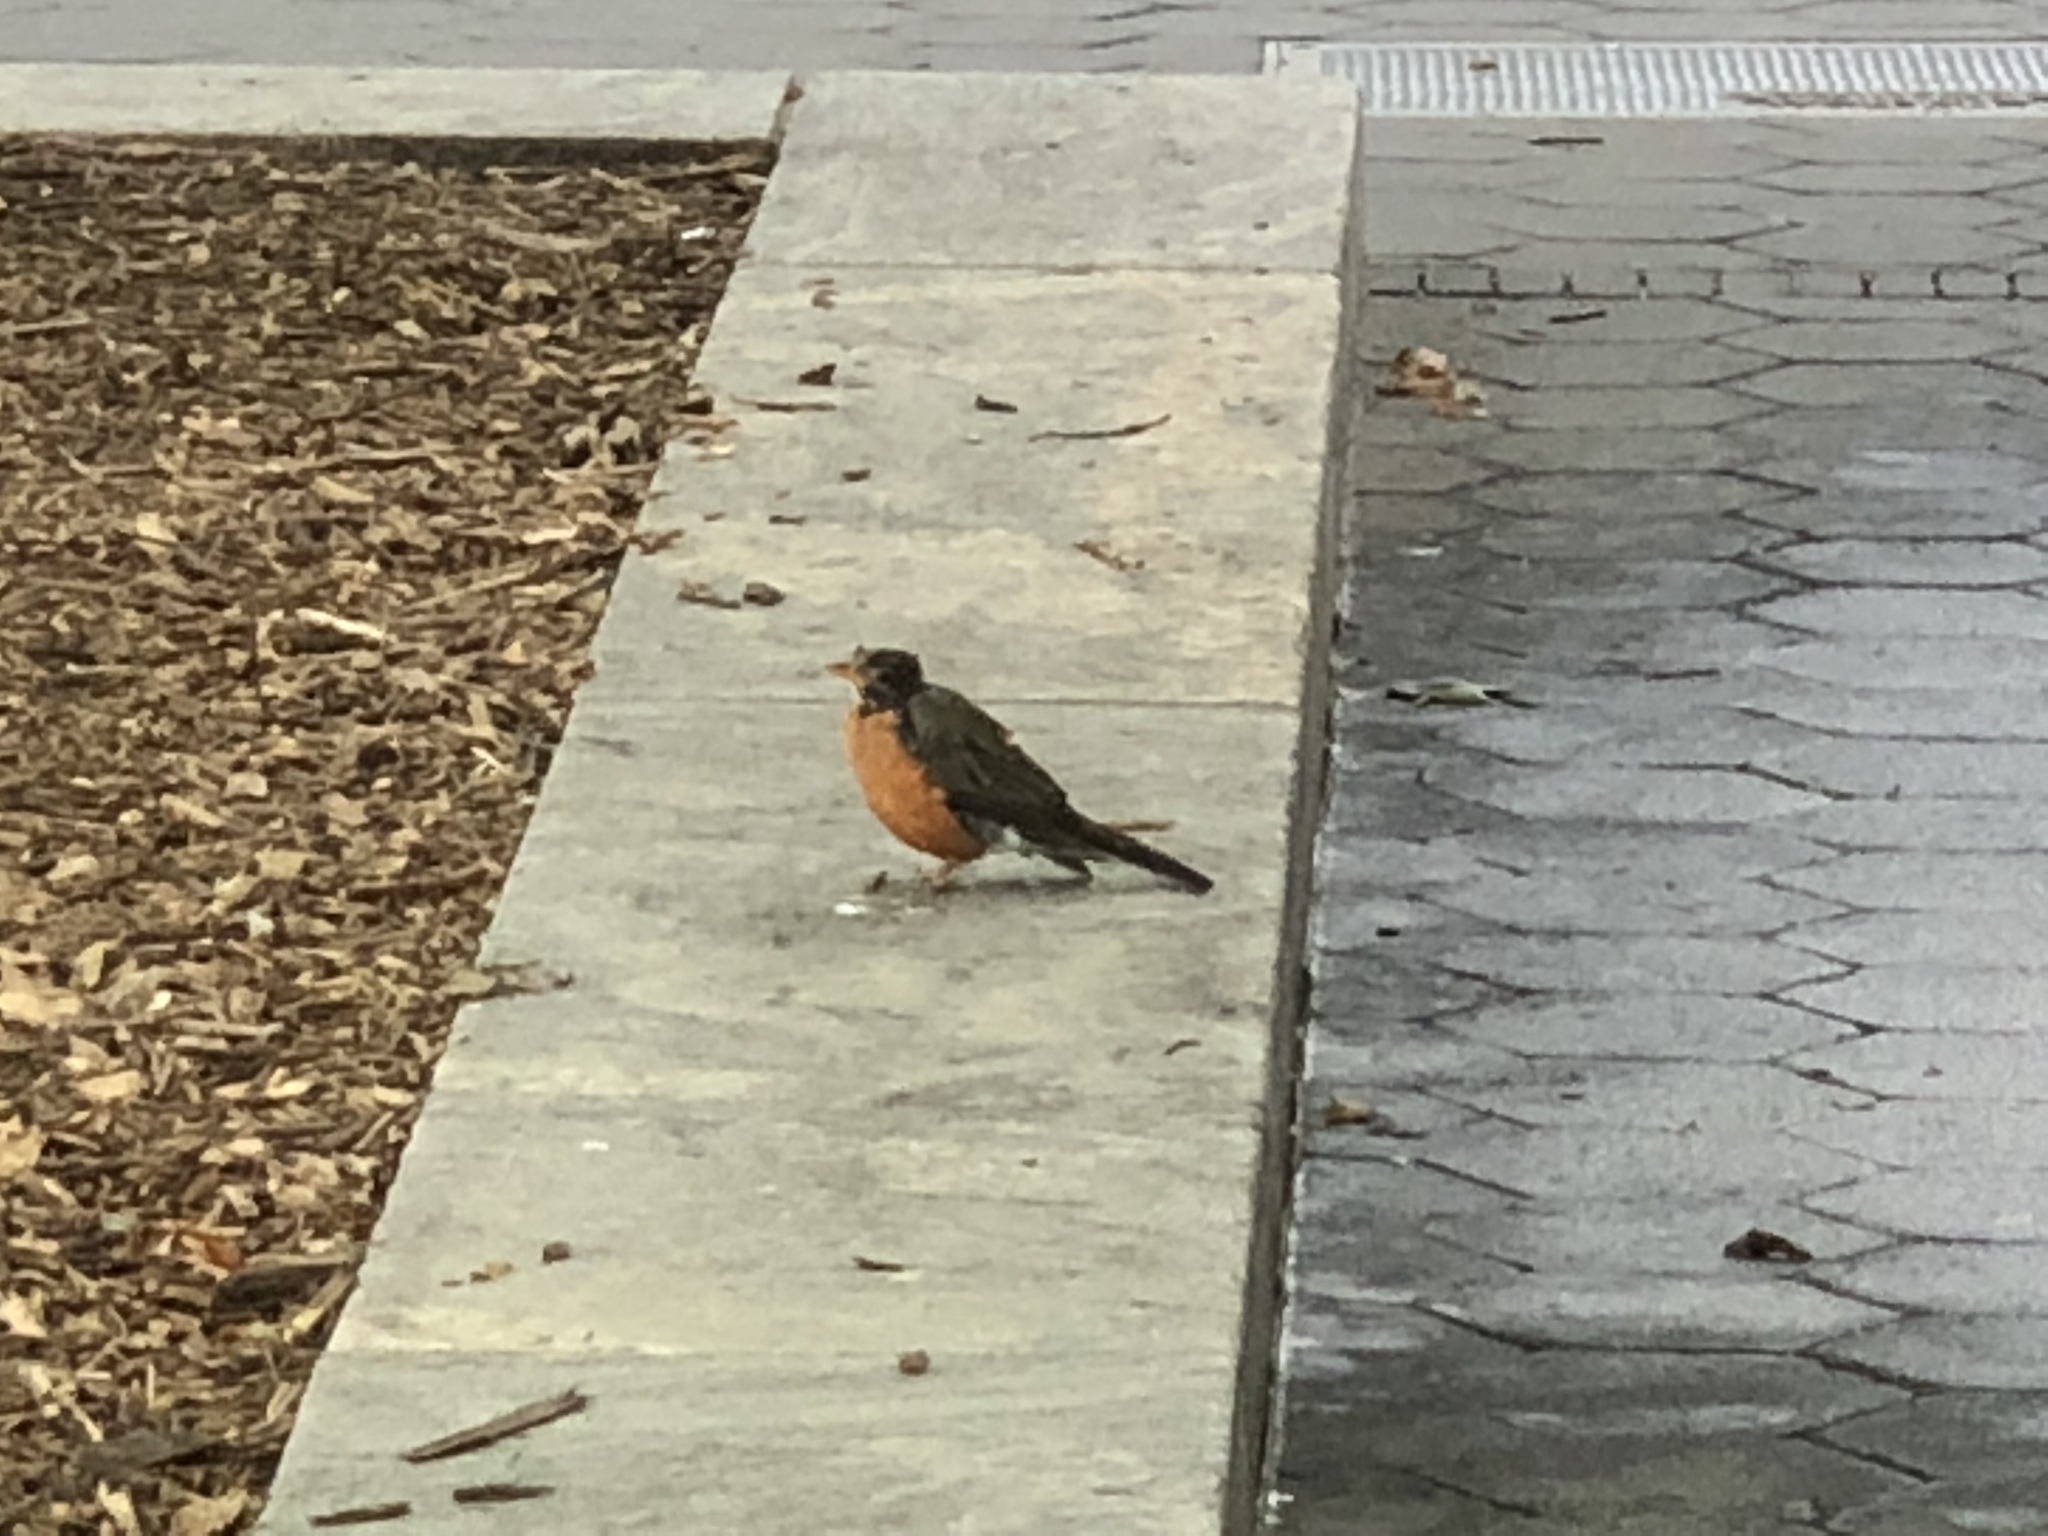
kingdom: Animalia
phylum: Chordata
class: Aves
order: Passeriformes
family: Turdidae
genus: Turdus
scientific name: Turdus migratorius
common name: American robin
